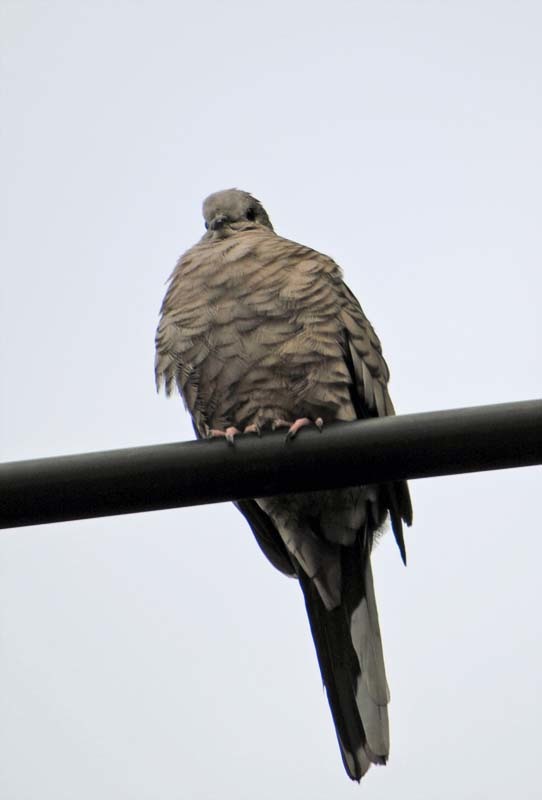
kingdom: Animalia
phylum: Chordata
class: Aves
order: Columbiformes
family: Columbidae
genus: Columbina
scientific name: Columbina inca
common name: Inca dove
